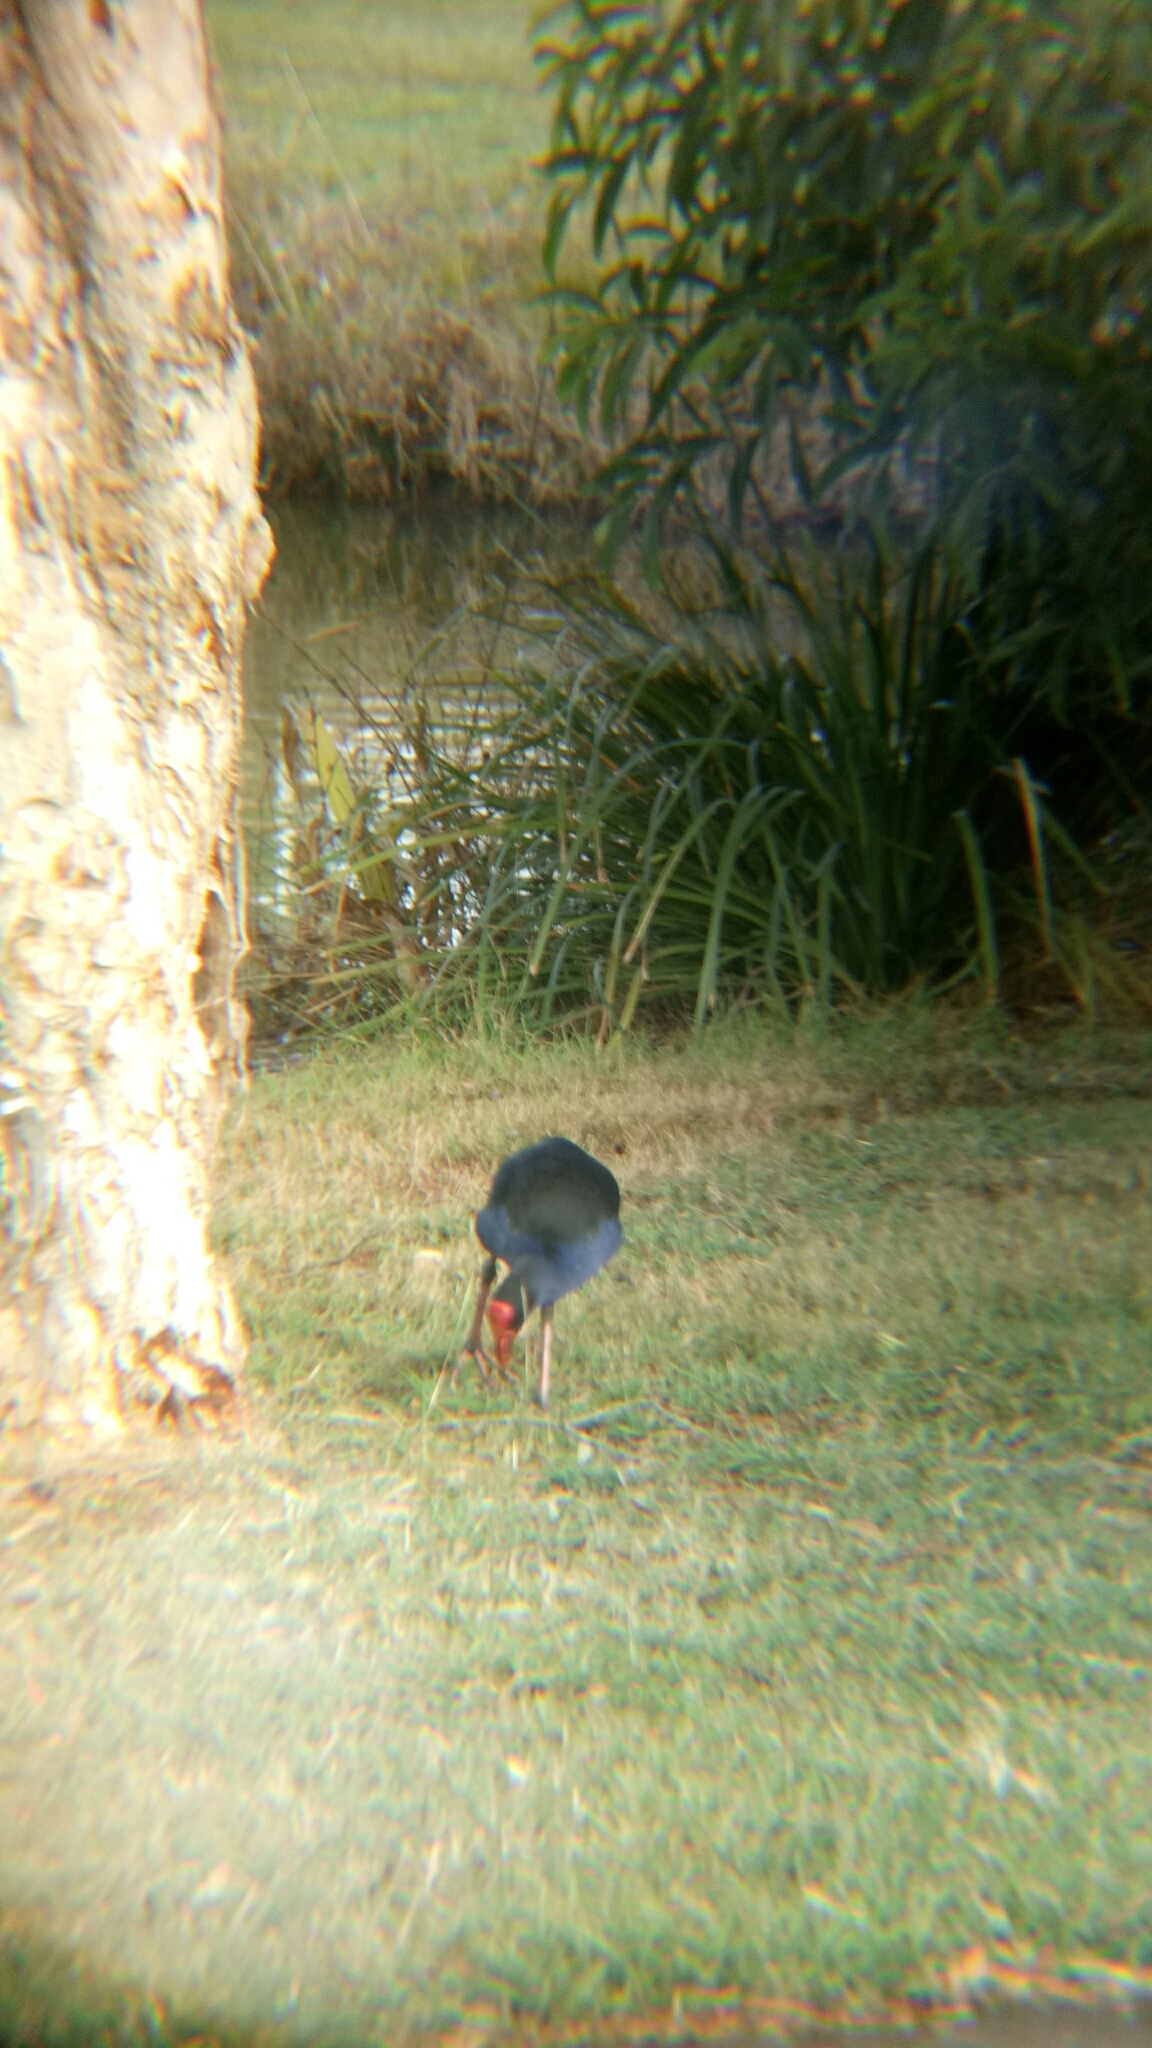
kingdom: Animalia
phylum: Chordata
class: Aves
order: Gruiformes
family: Rallidae
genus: Porphyrio
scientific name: Porphyrio melanotus
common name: Australasian swamphen
